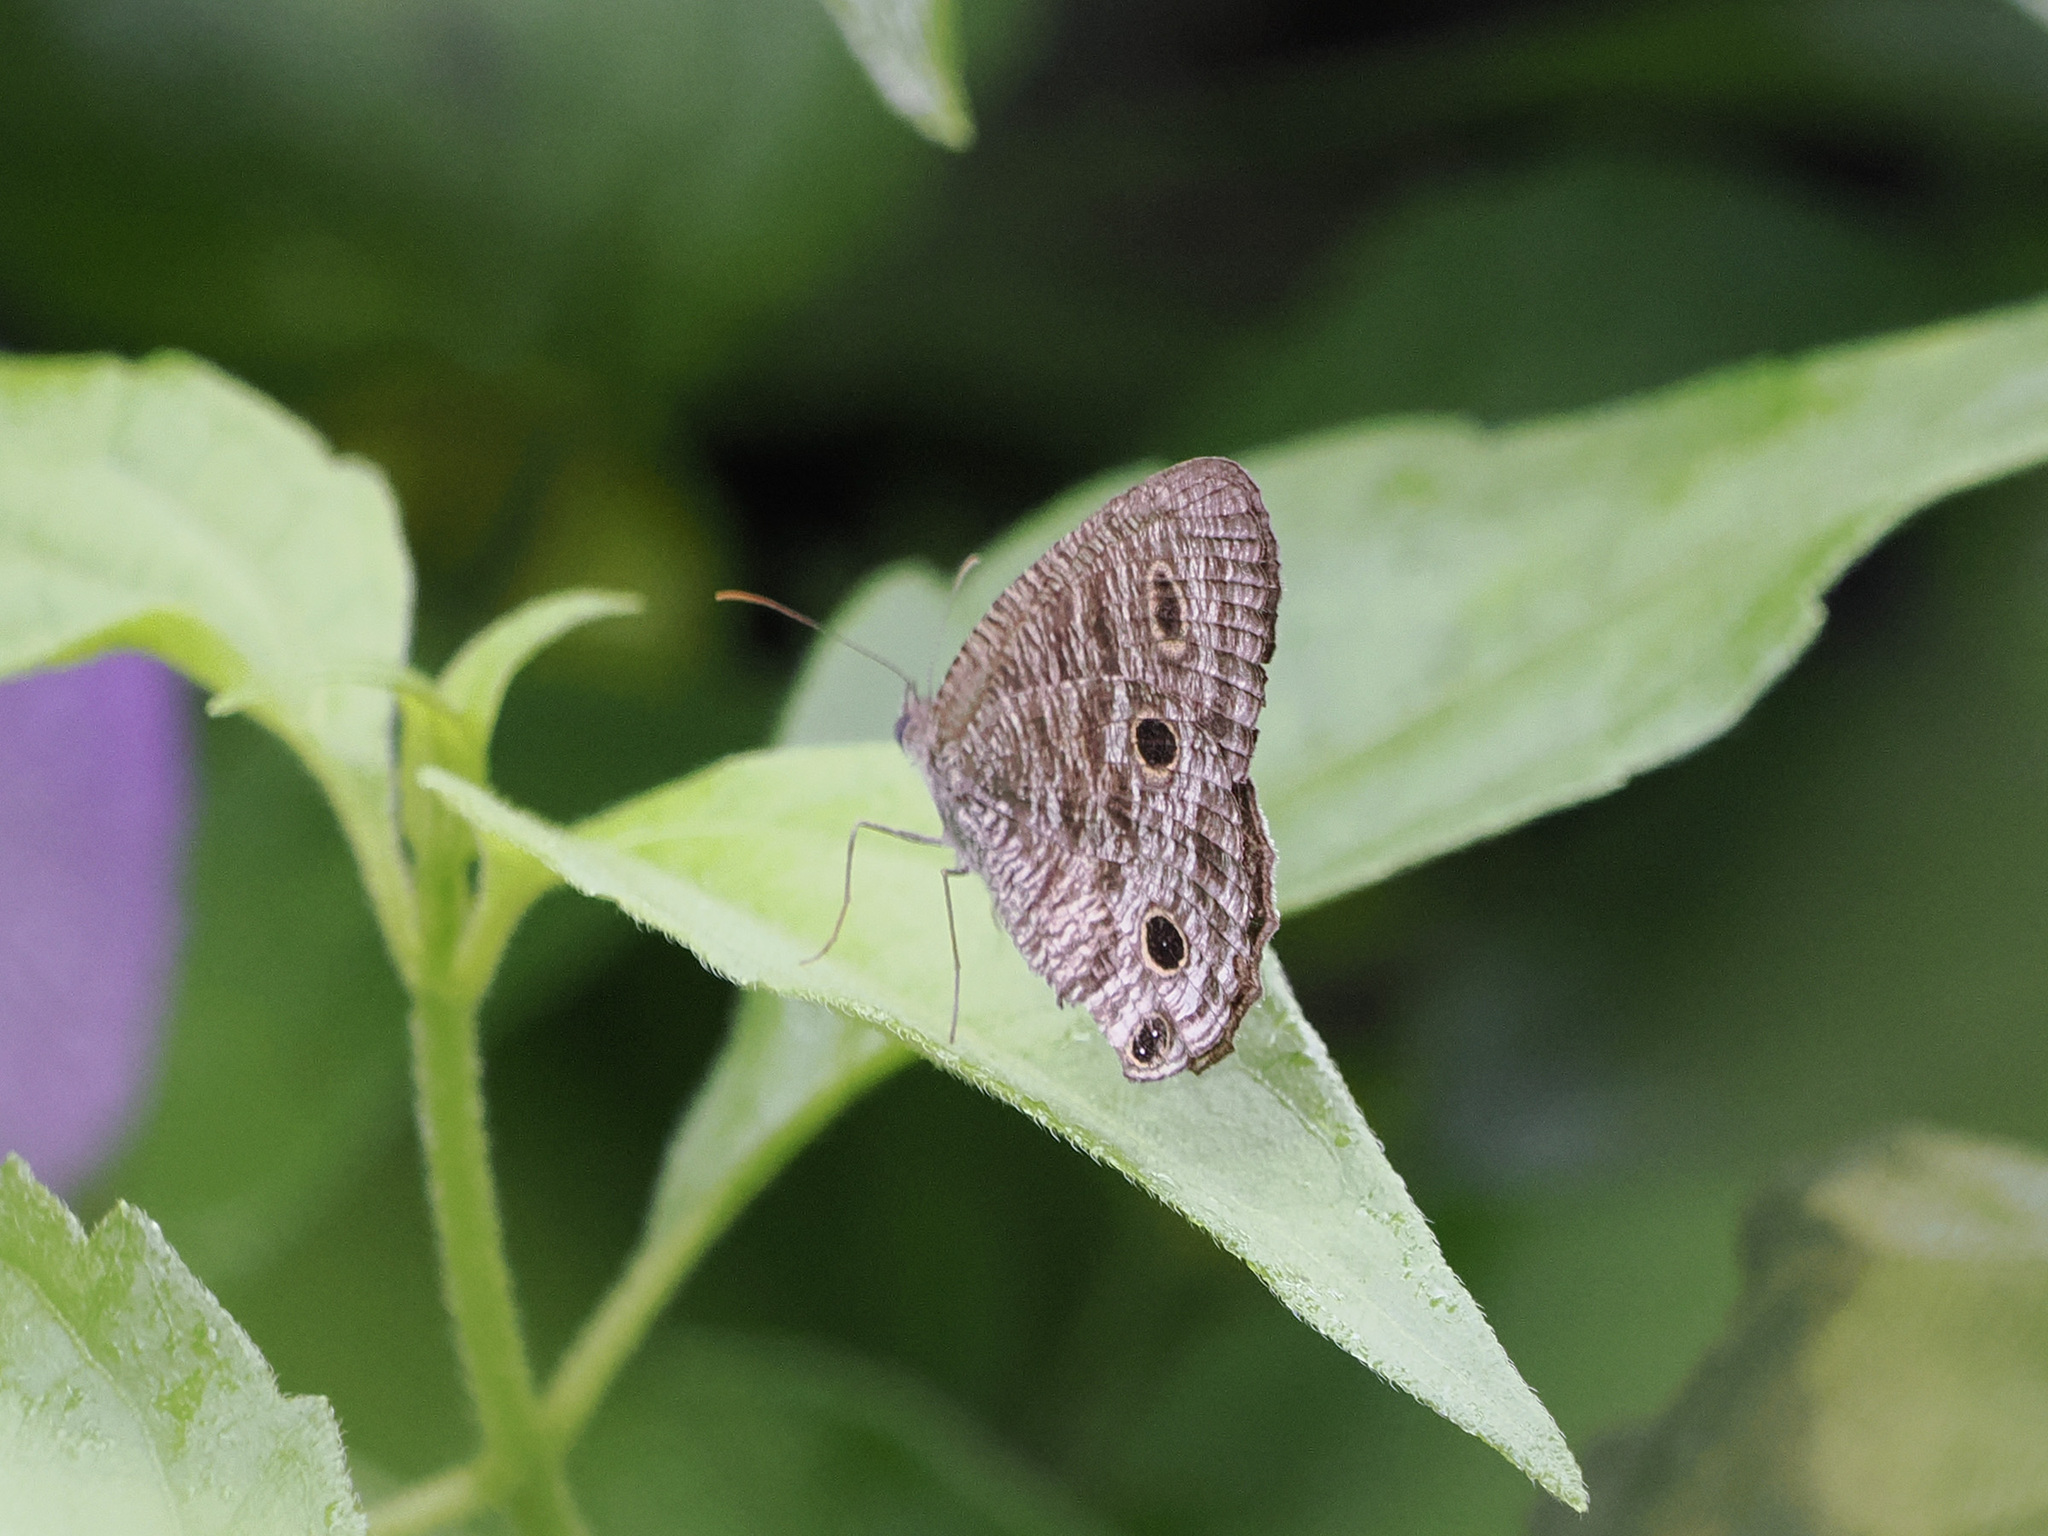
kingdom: Animalia
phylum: Arthropoda
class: Insecta
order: Lepidoptera
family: Nymphalidae
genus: Ypthima
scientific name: Ypthima pandocus
